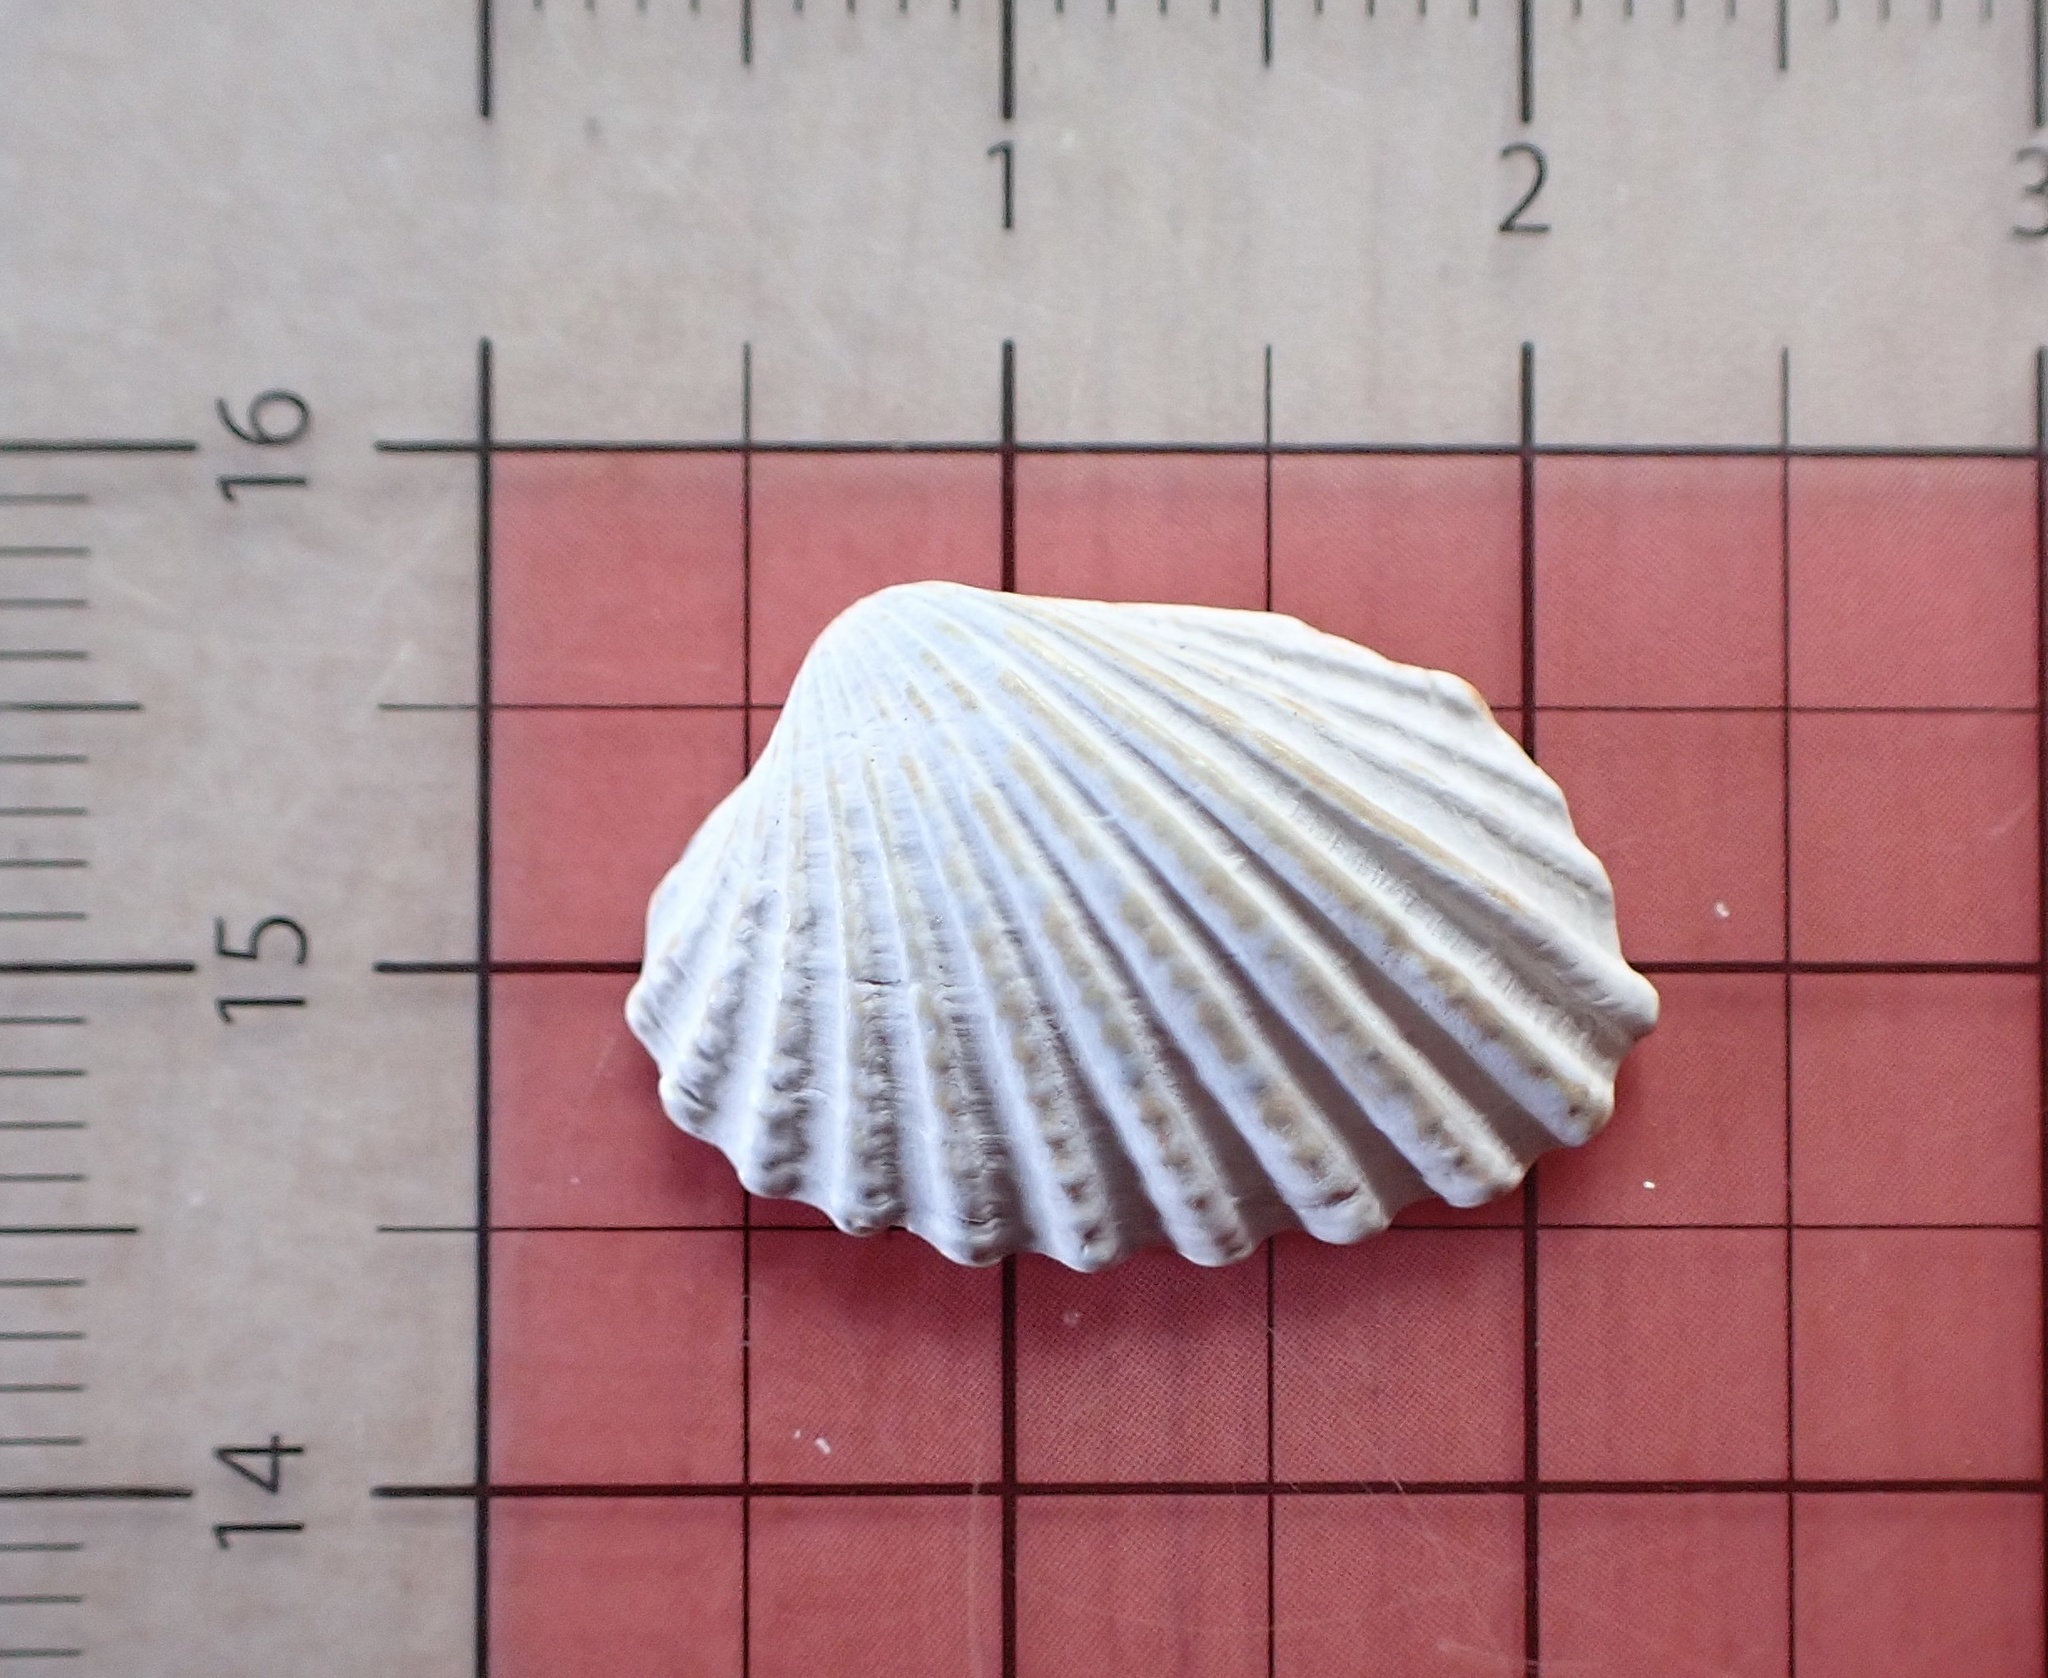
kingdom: Animalia
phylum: Mollusca
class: Bivalvia
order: Carditida
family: Carditidae
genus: Cardites
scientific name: Cardites floridanus
